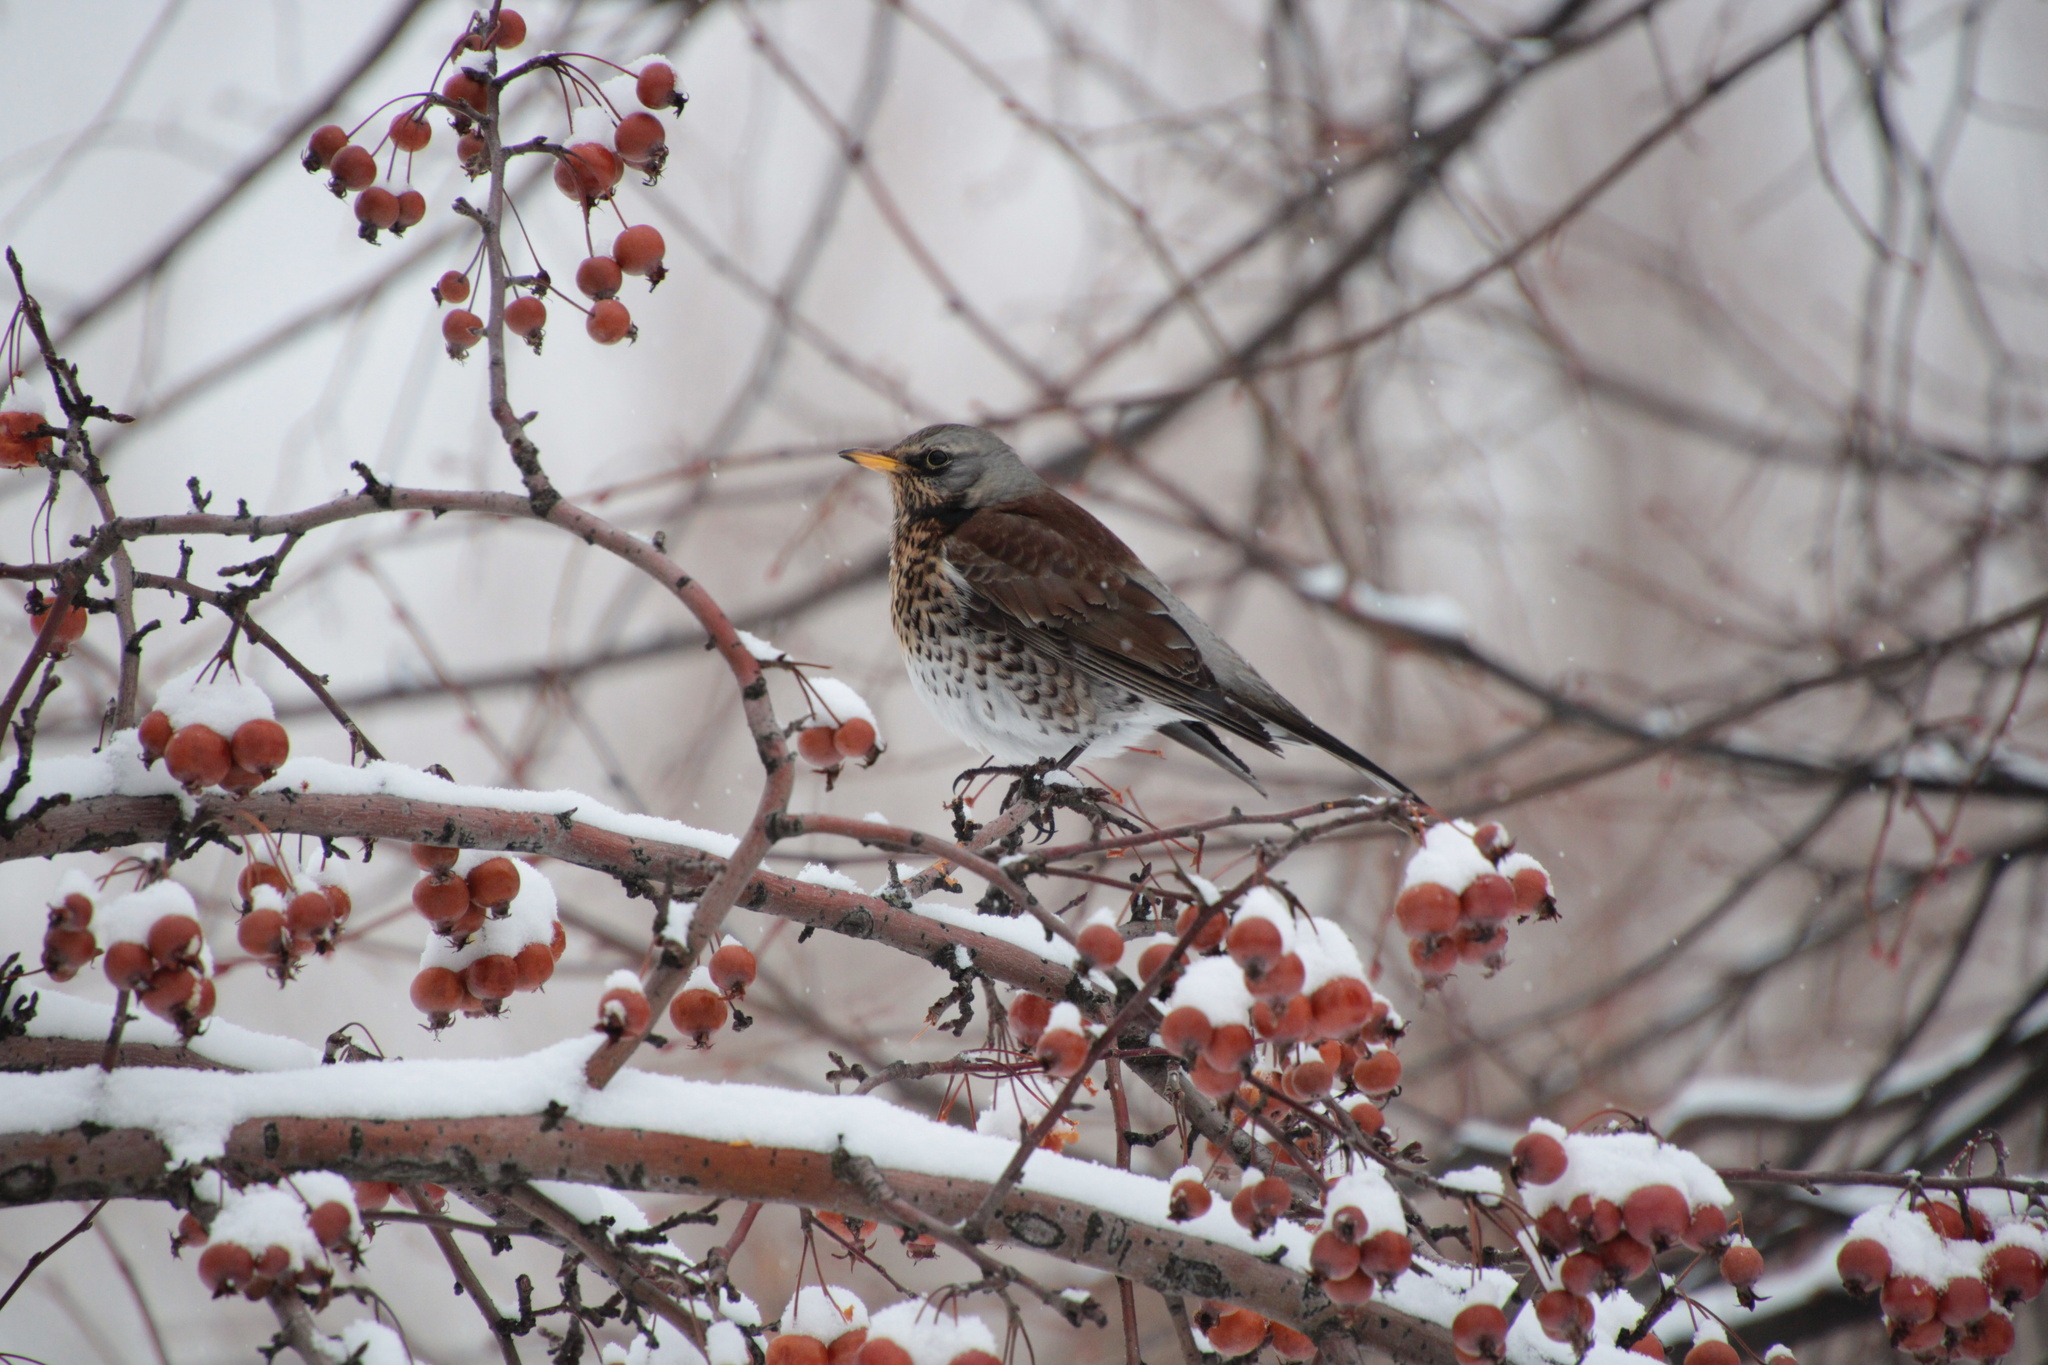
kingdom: Animalia
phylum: Chordata
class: Aves
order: Passeriformes
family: Turdidae
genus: Turdus
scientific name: Turdus pilaris
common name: Fieldfare
